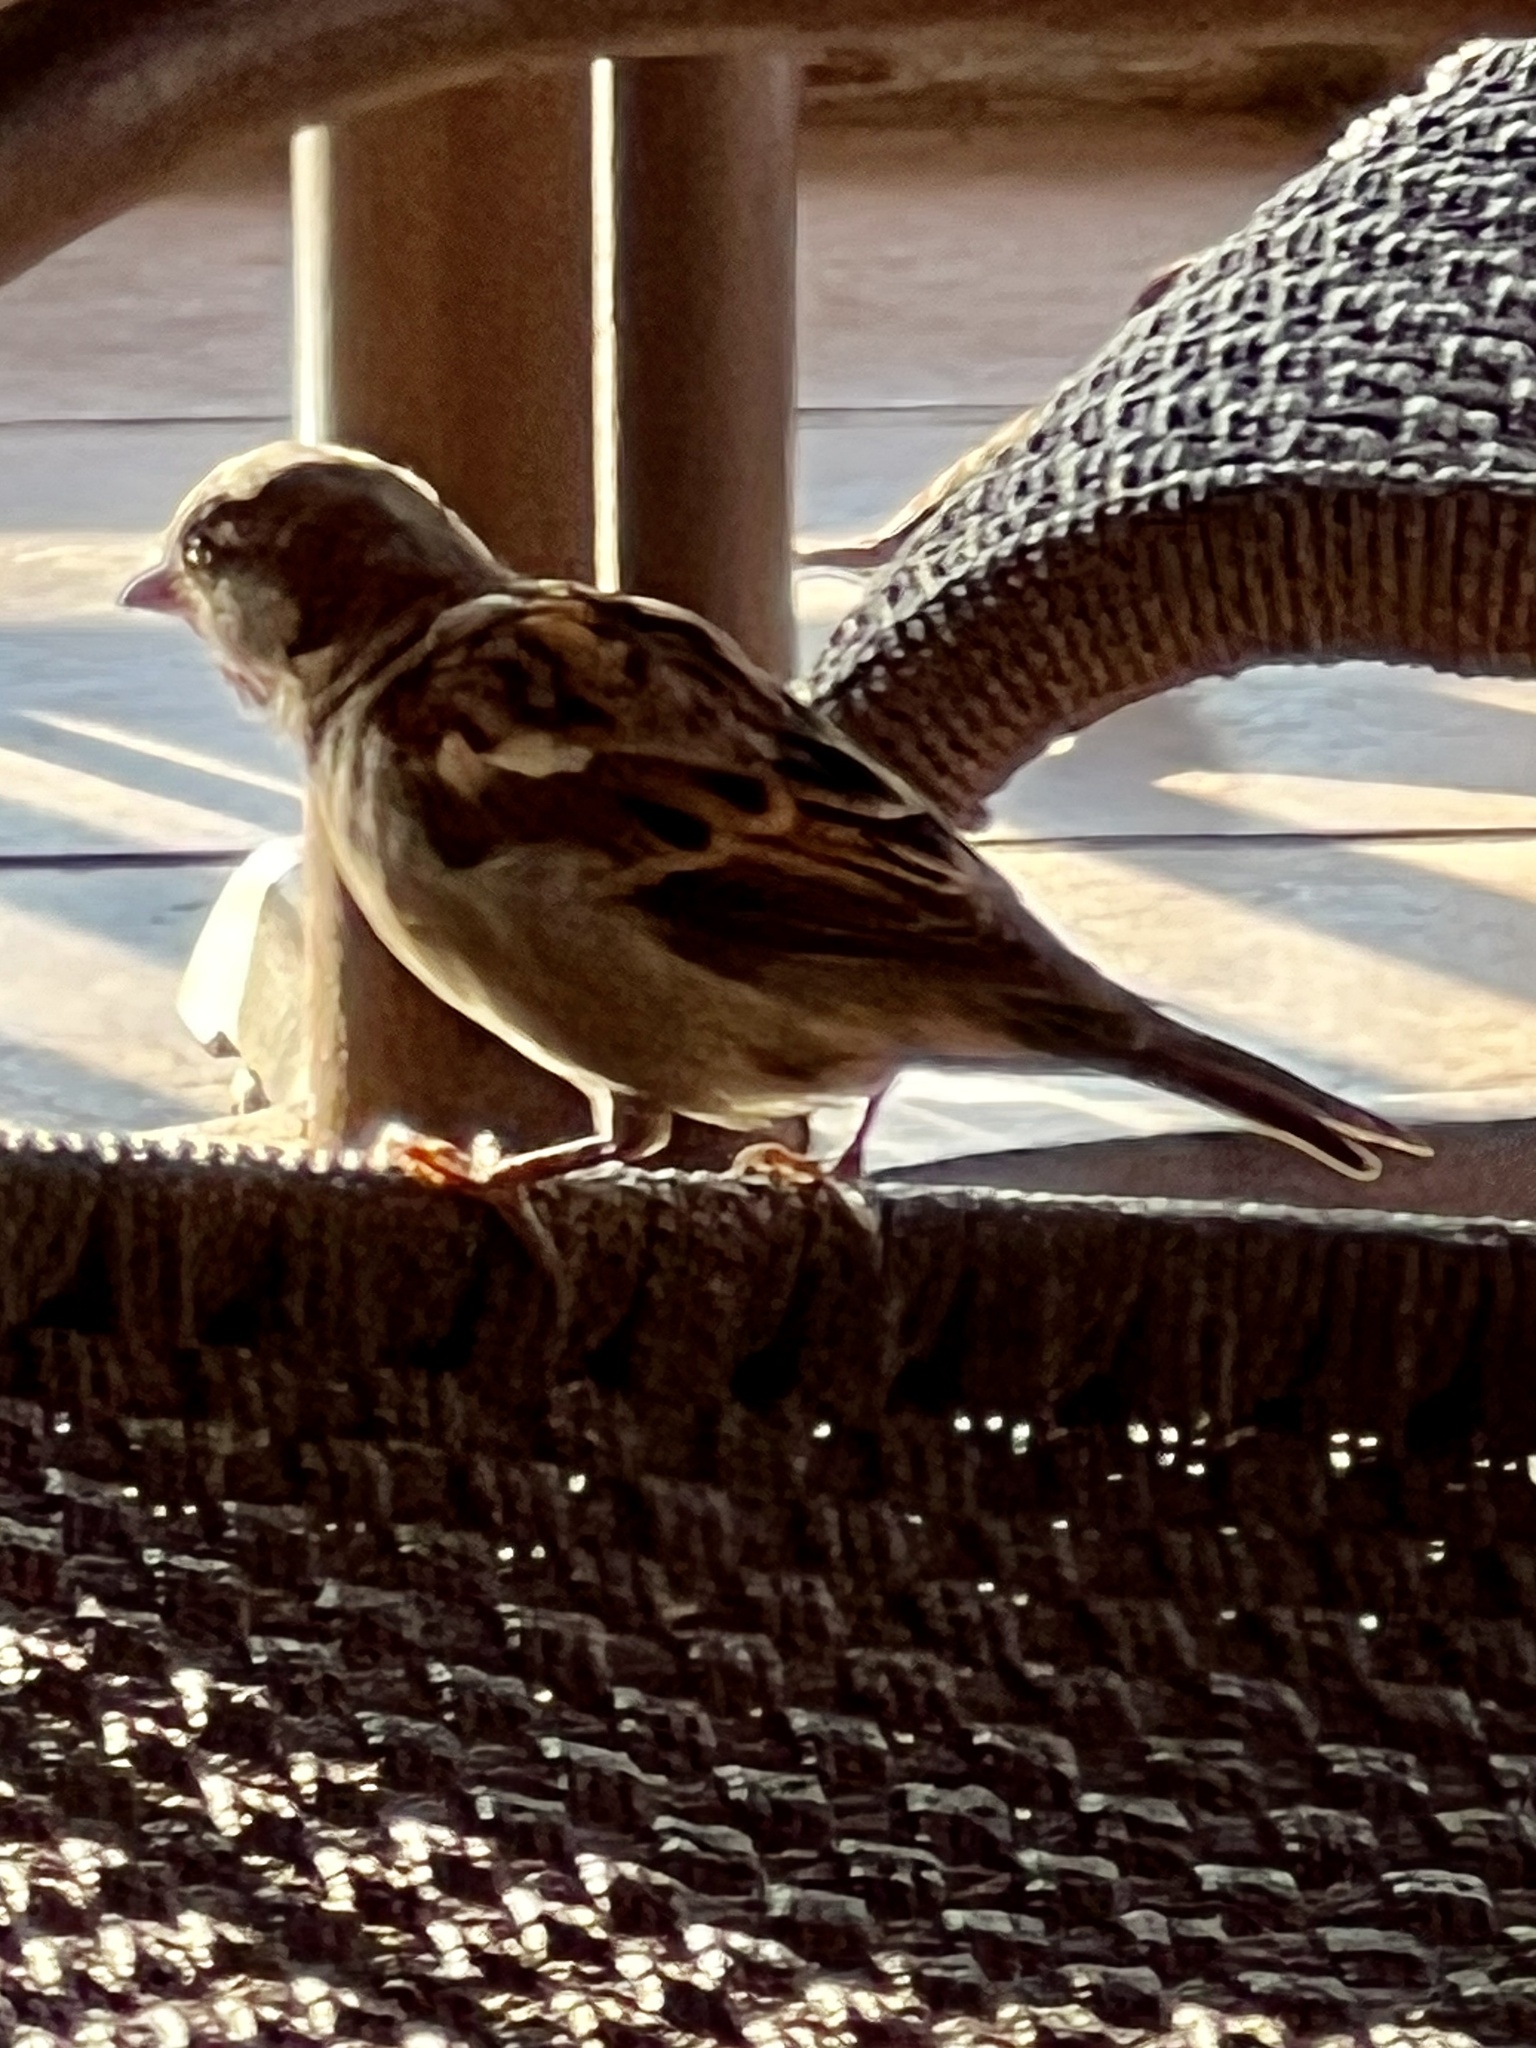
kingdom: Animalia
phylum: Chordata
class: Aves
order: Passeriformes
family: Passeridae
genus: Passer
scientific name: Passer domesticus
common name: House sparrow
